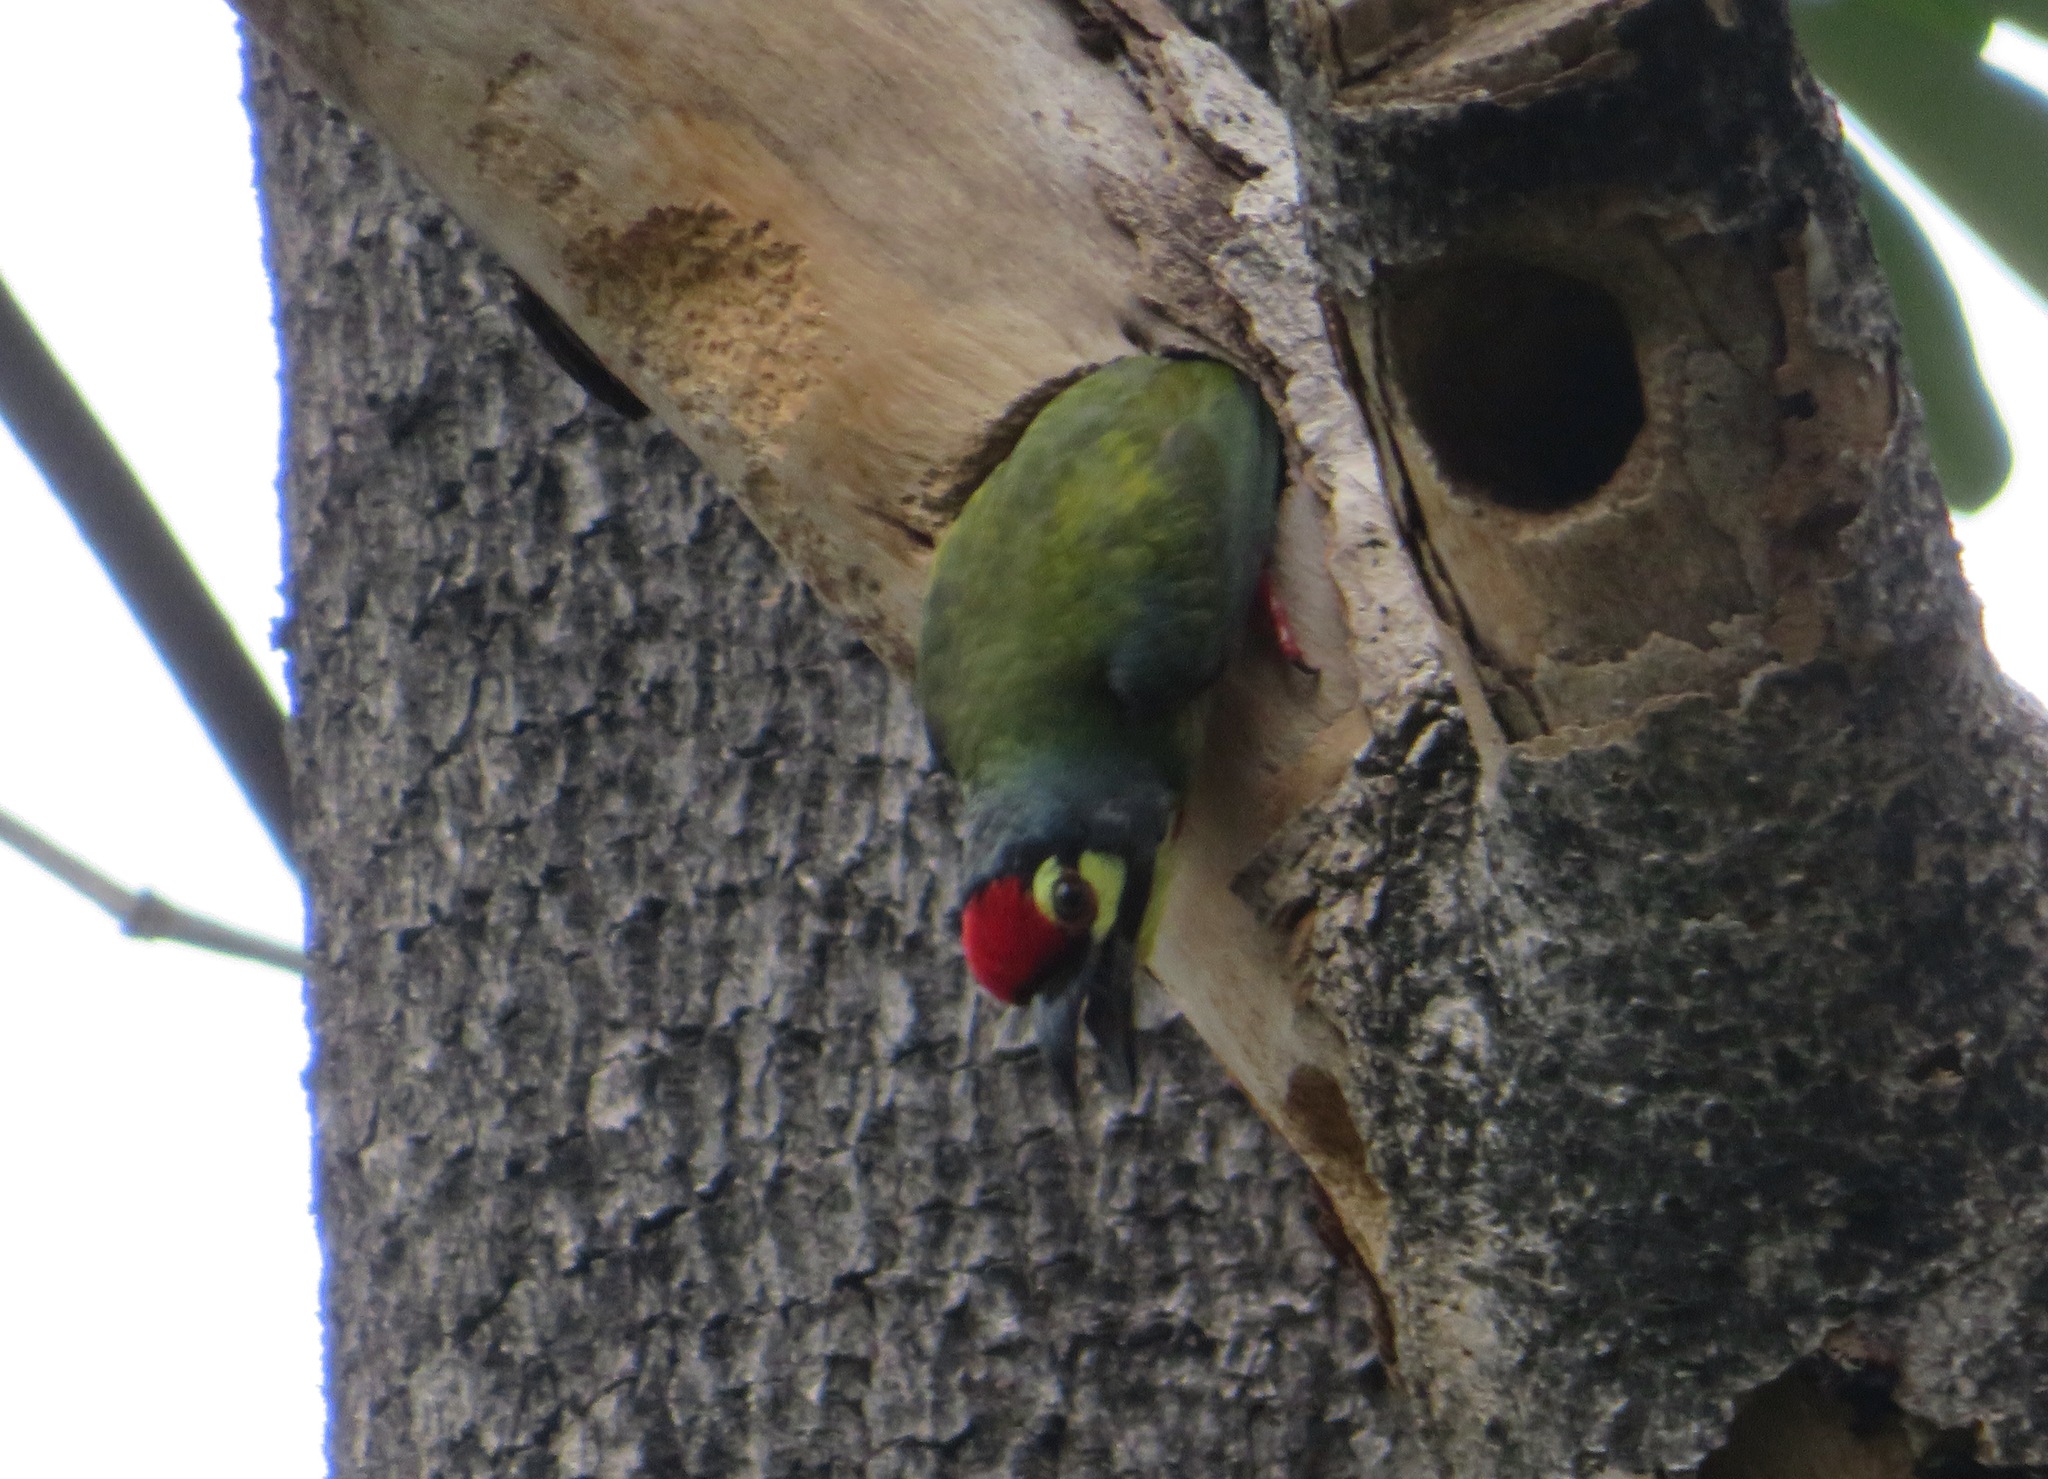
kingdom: Animalia
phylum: Chordata
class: Aves
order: Piciformes
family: Megalaimidae
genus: Psilopogon
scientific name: Psilopogon haemacephalus
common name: Coppersmith barbet
